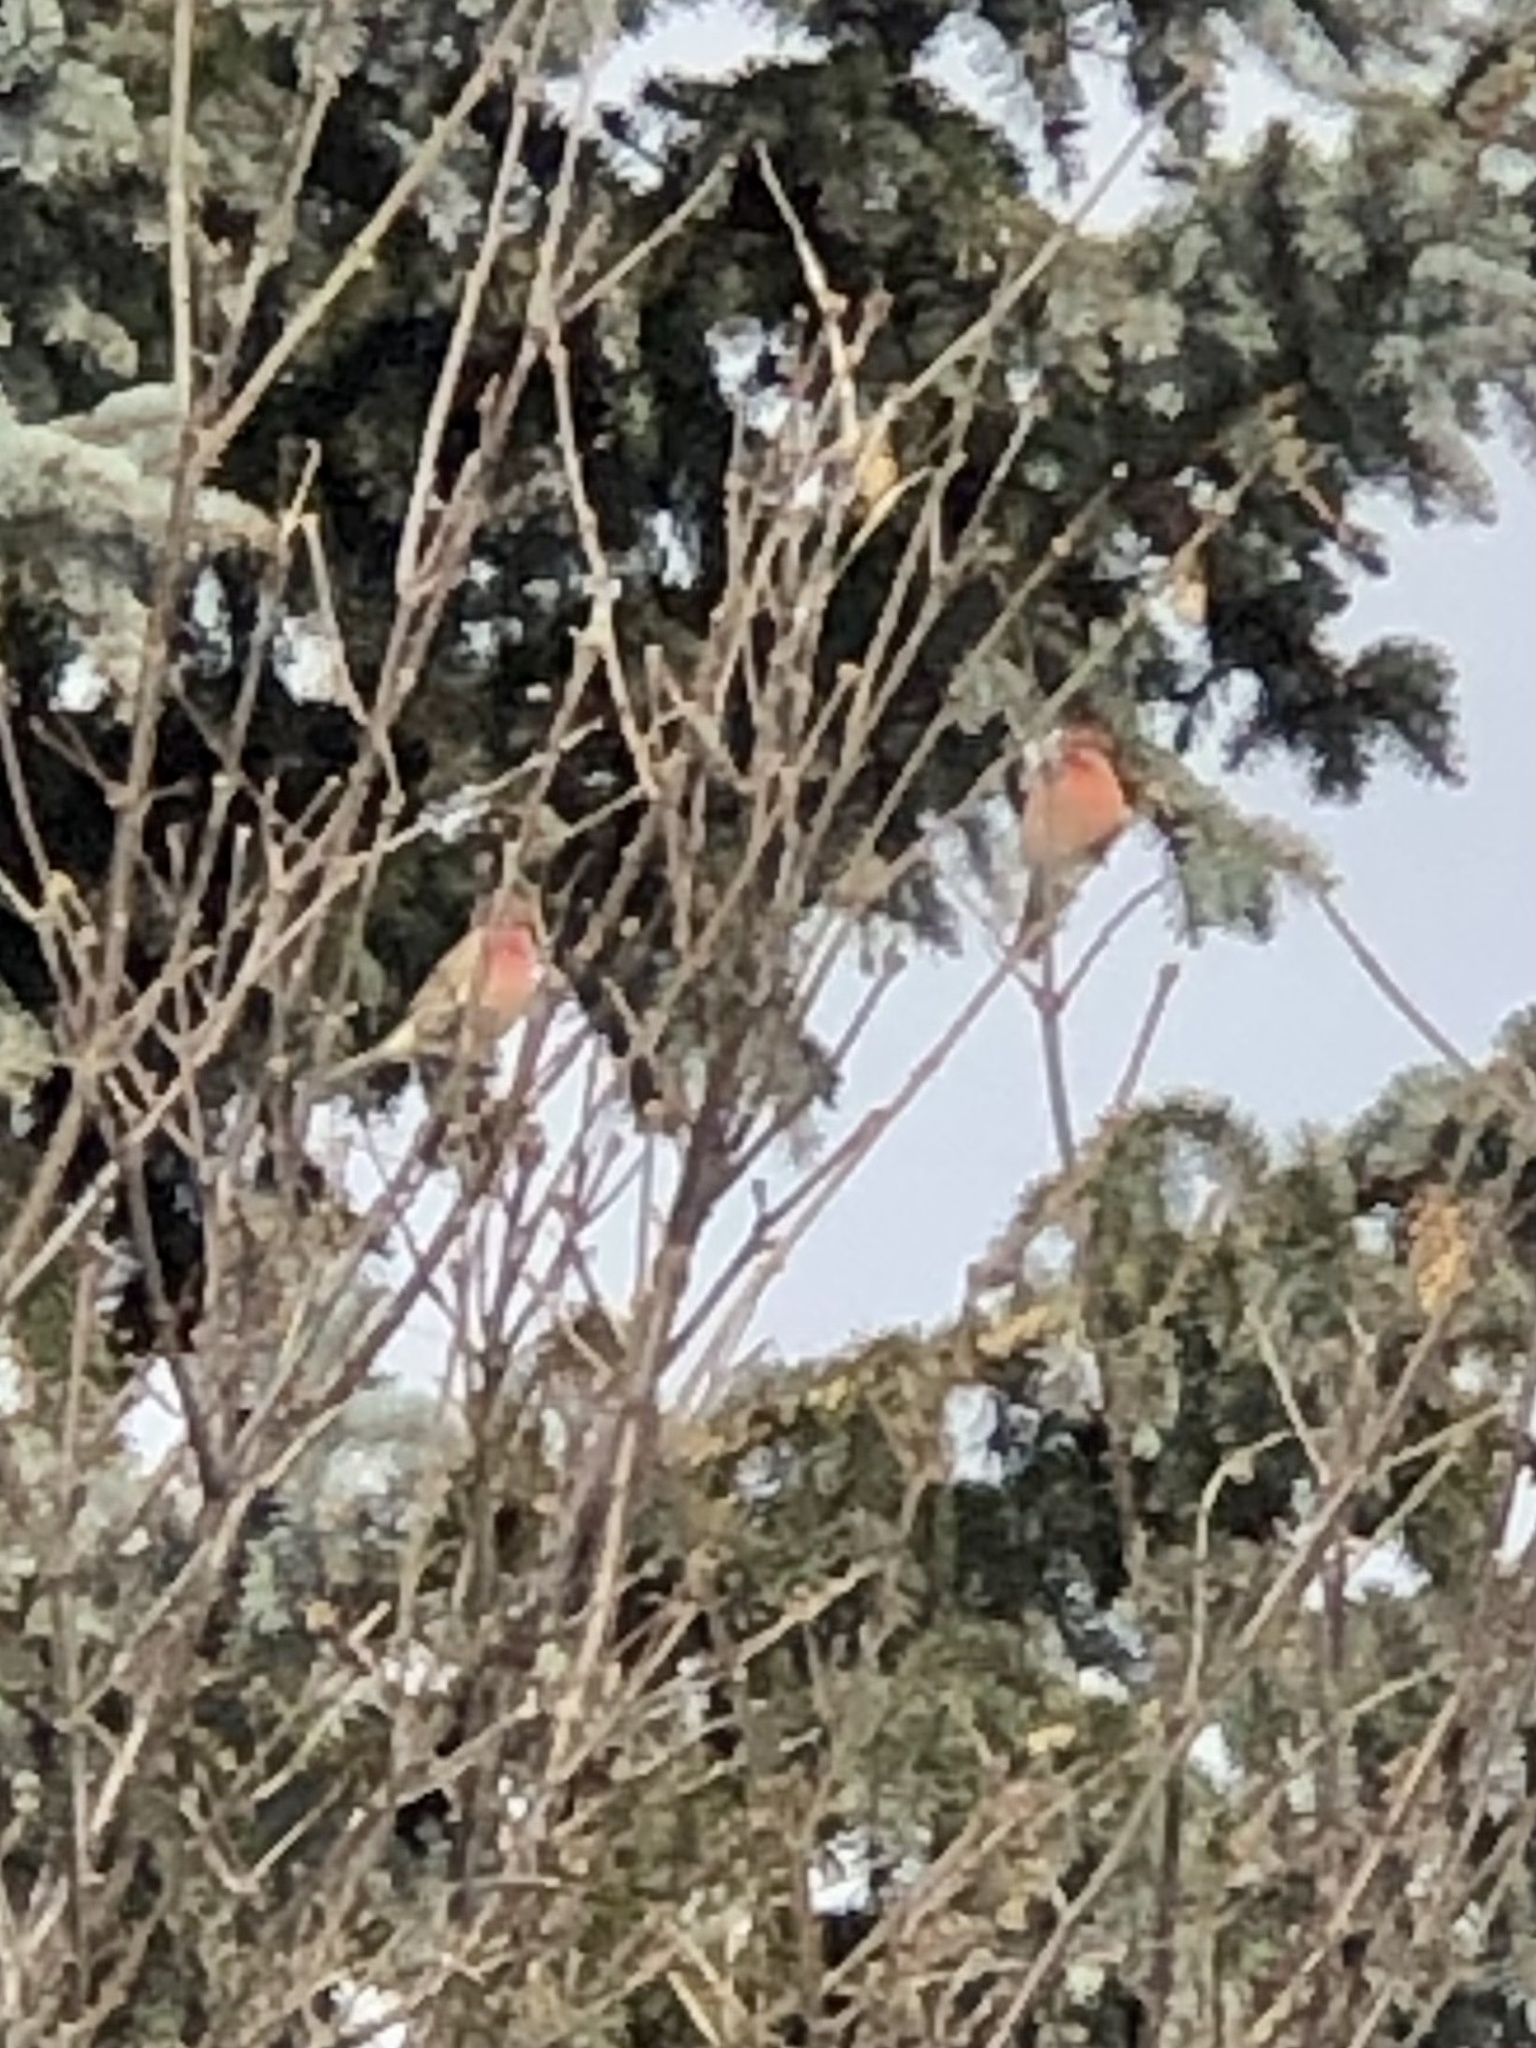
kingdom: Animalia
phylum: Chordata
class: Aves
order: Passeriformes
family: Fringillidae
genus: Haemorhous
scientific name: Haemorhous mexicanus
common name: House finch
